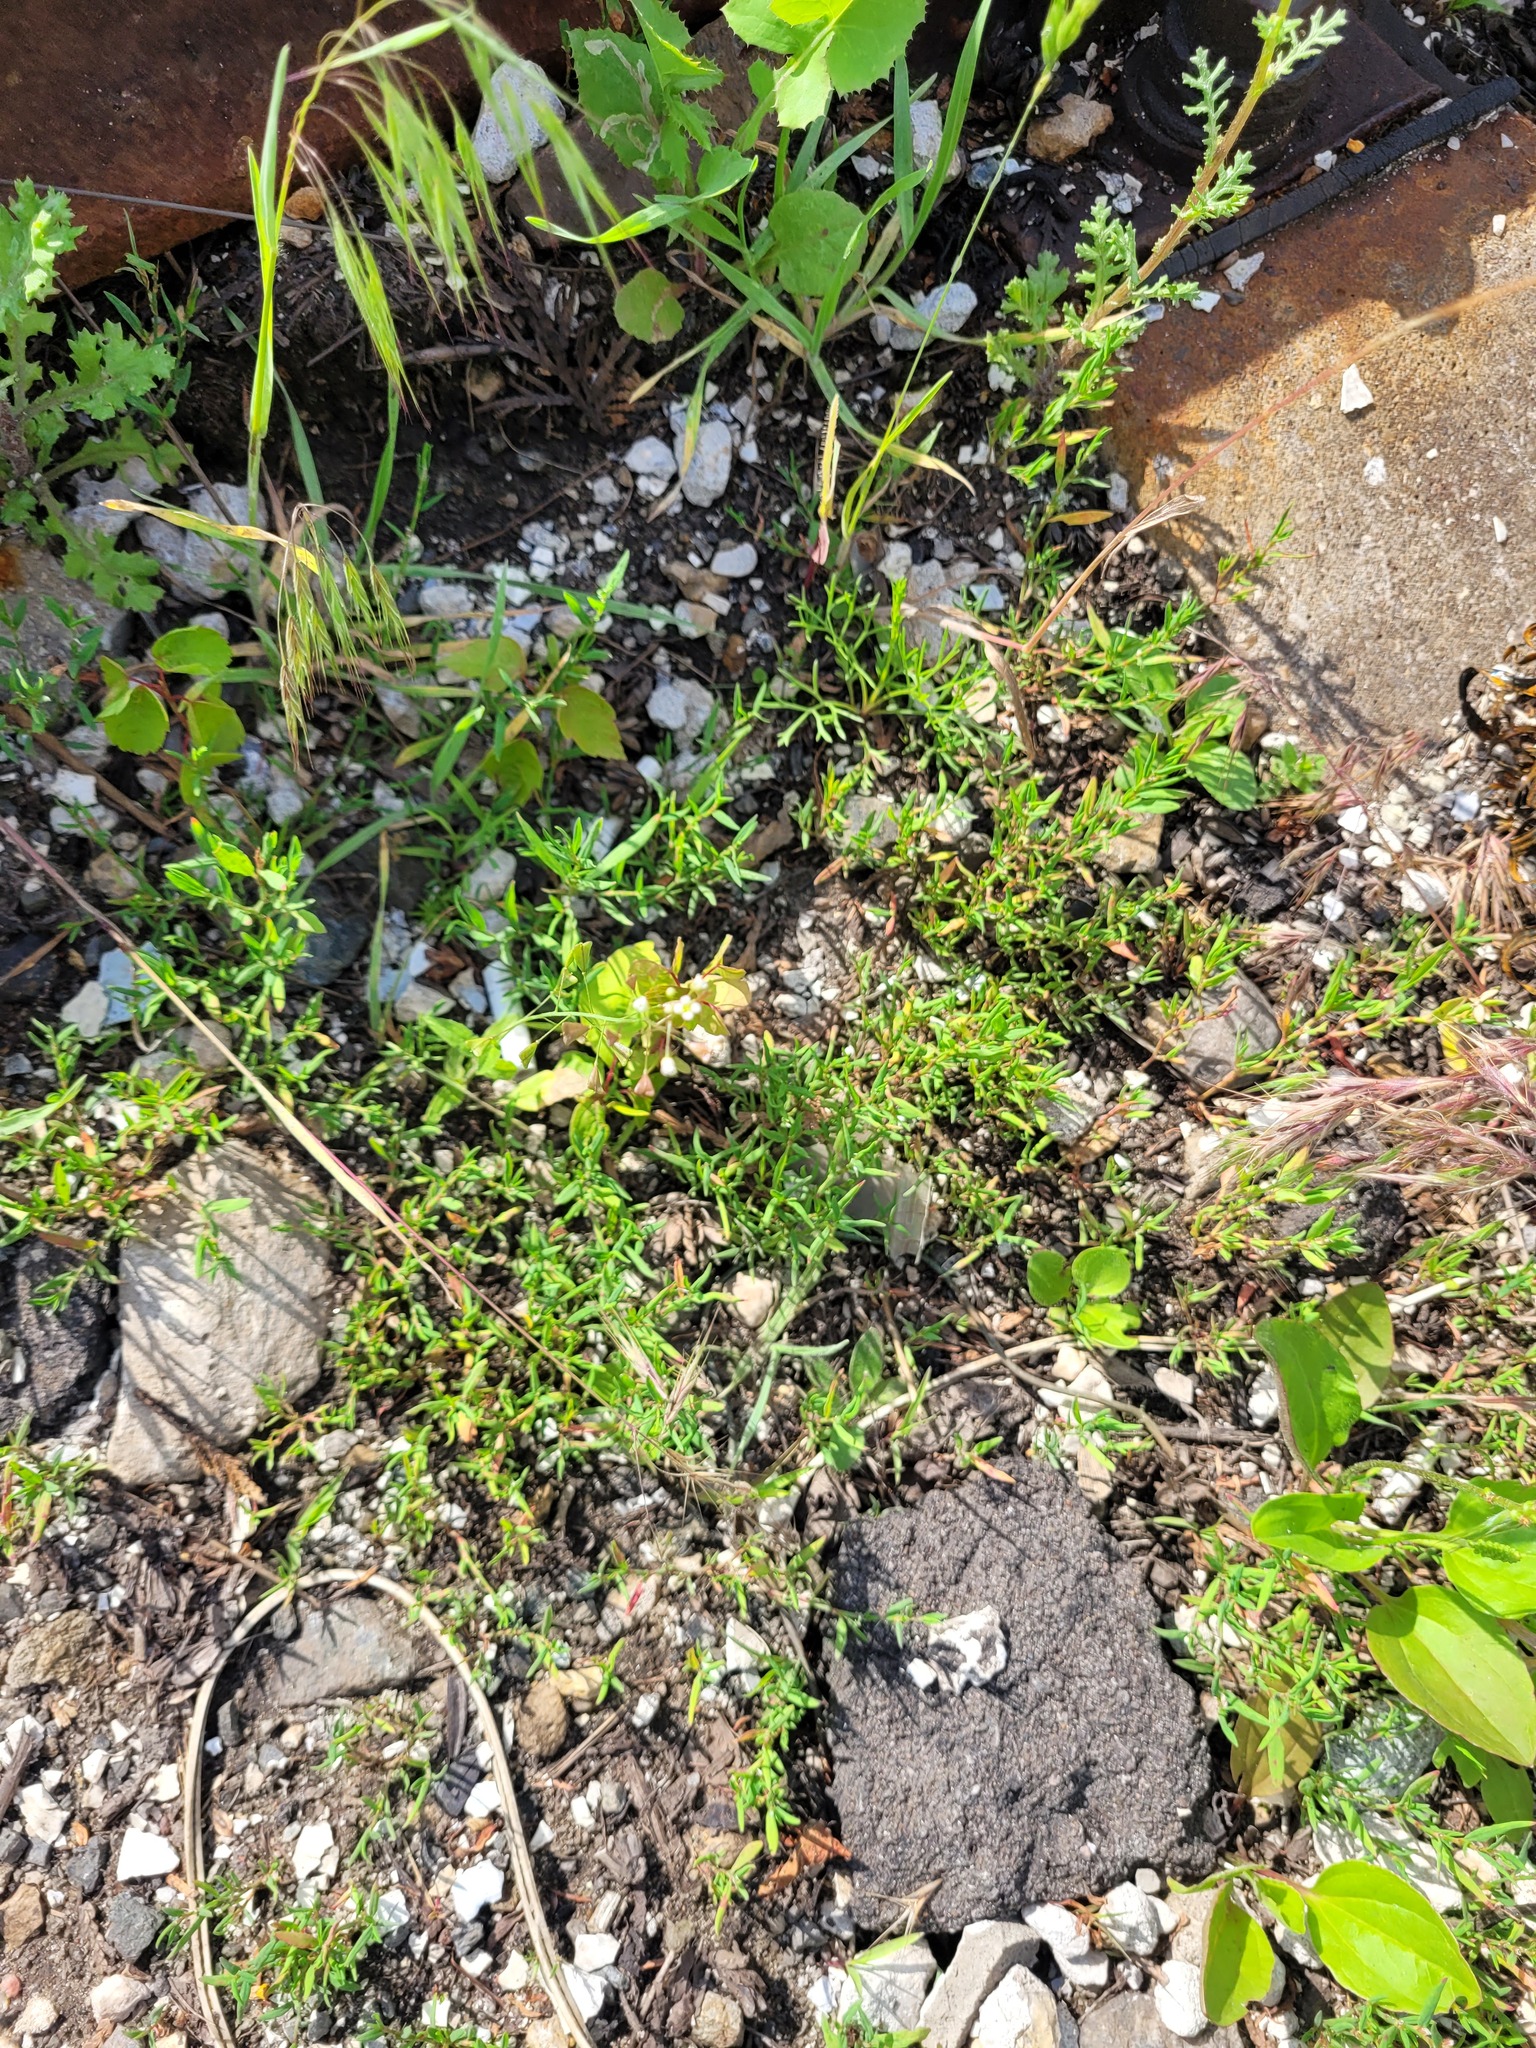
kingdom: Plantae
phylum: Tracheophyta
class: Magnoliopsida
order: Brassicales
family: Brassicaceae
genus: Capsella
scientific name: Capsella bursa-pastoris
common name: Shepherd's purse
